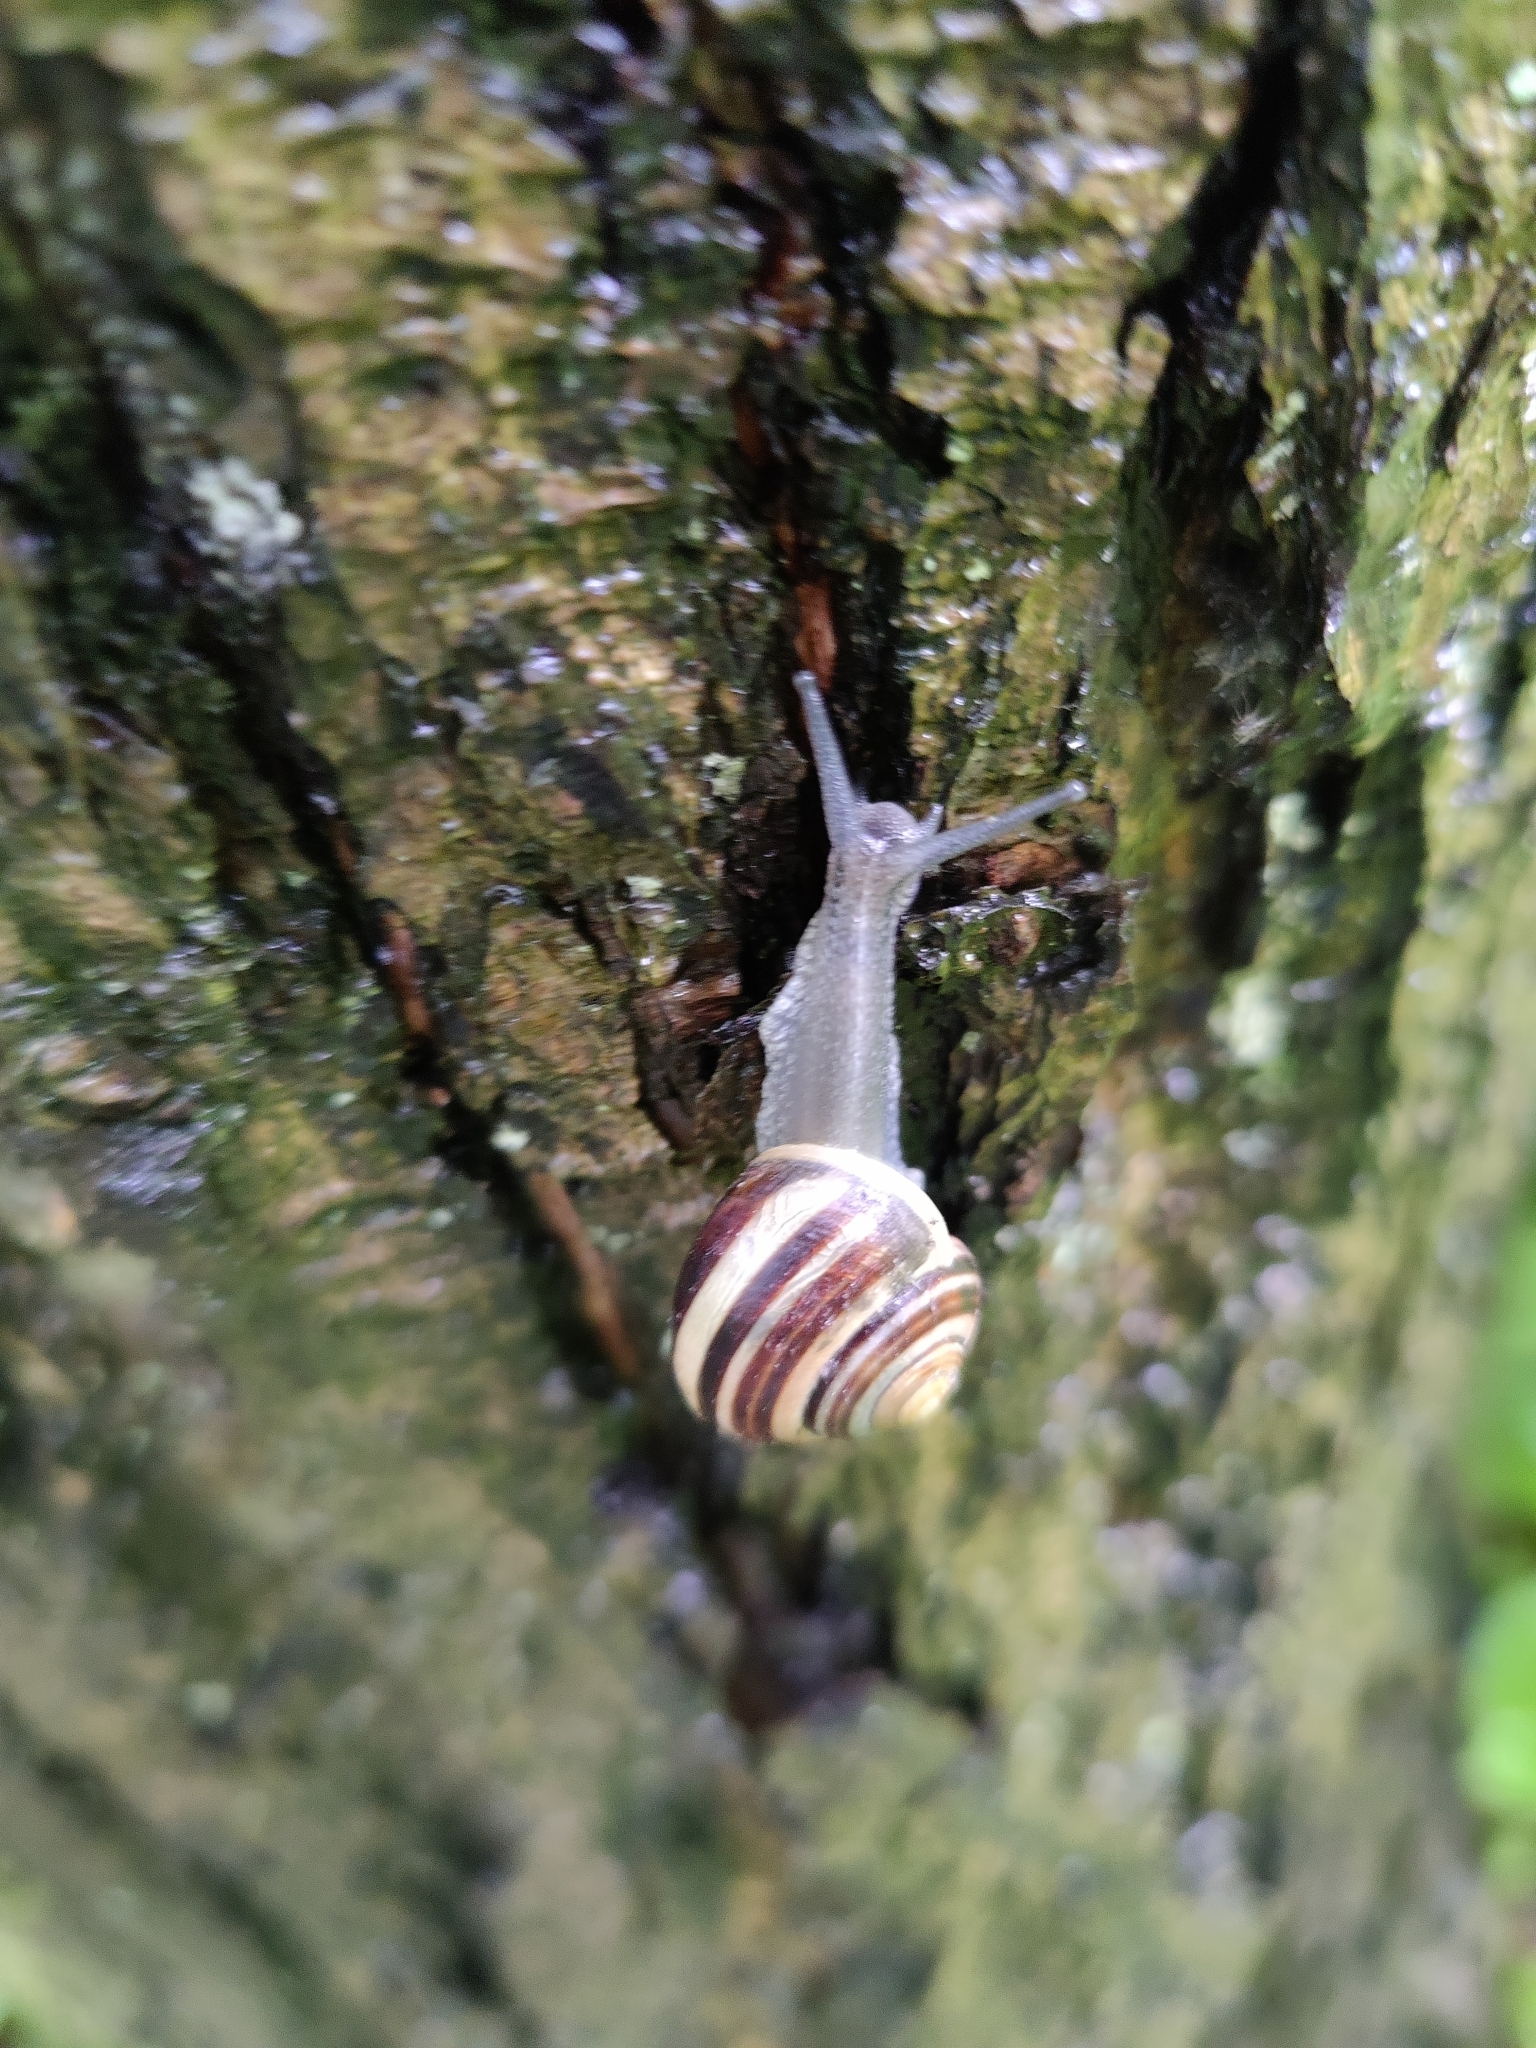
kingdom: Animalia
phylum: Mollusca
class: Gastropoda
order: Stylommatophora
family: Helicidae
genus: Cepaea
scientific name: Cepaea nemoralis
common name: Grovesnail
